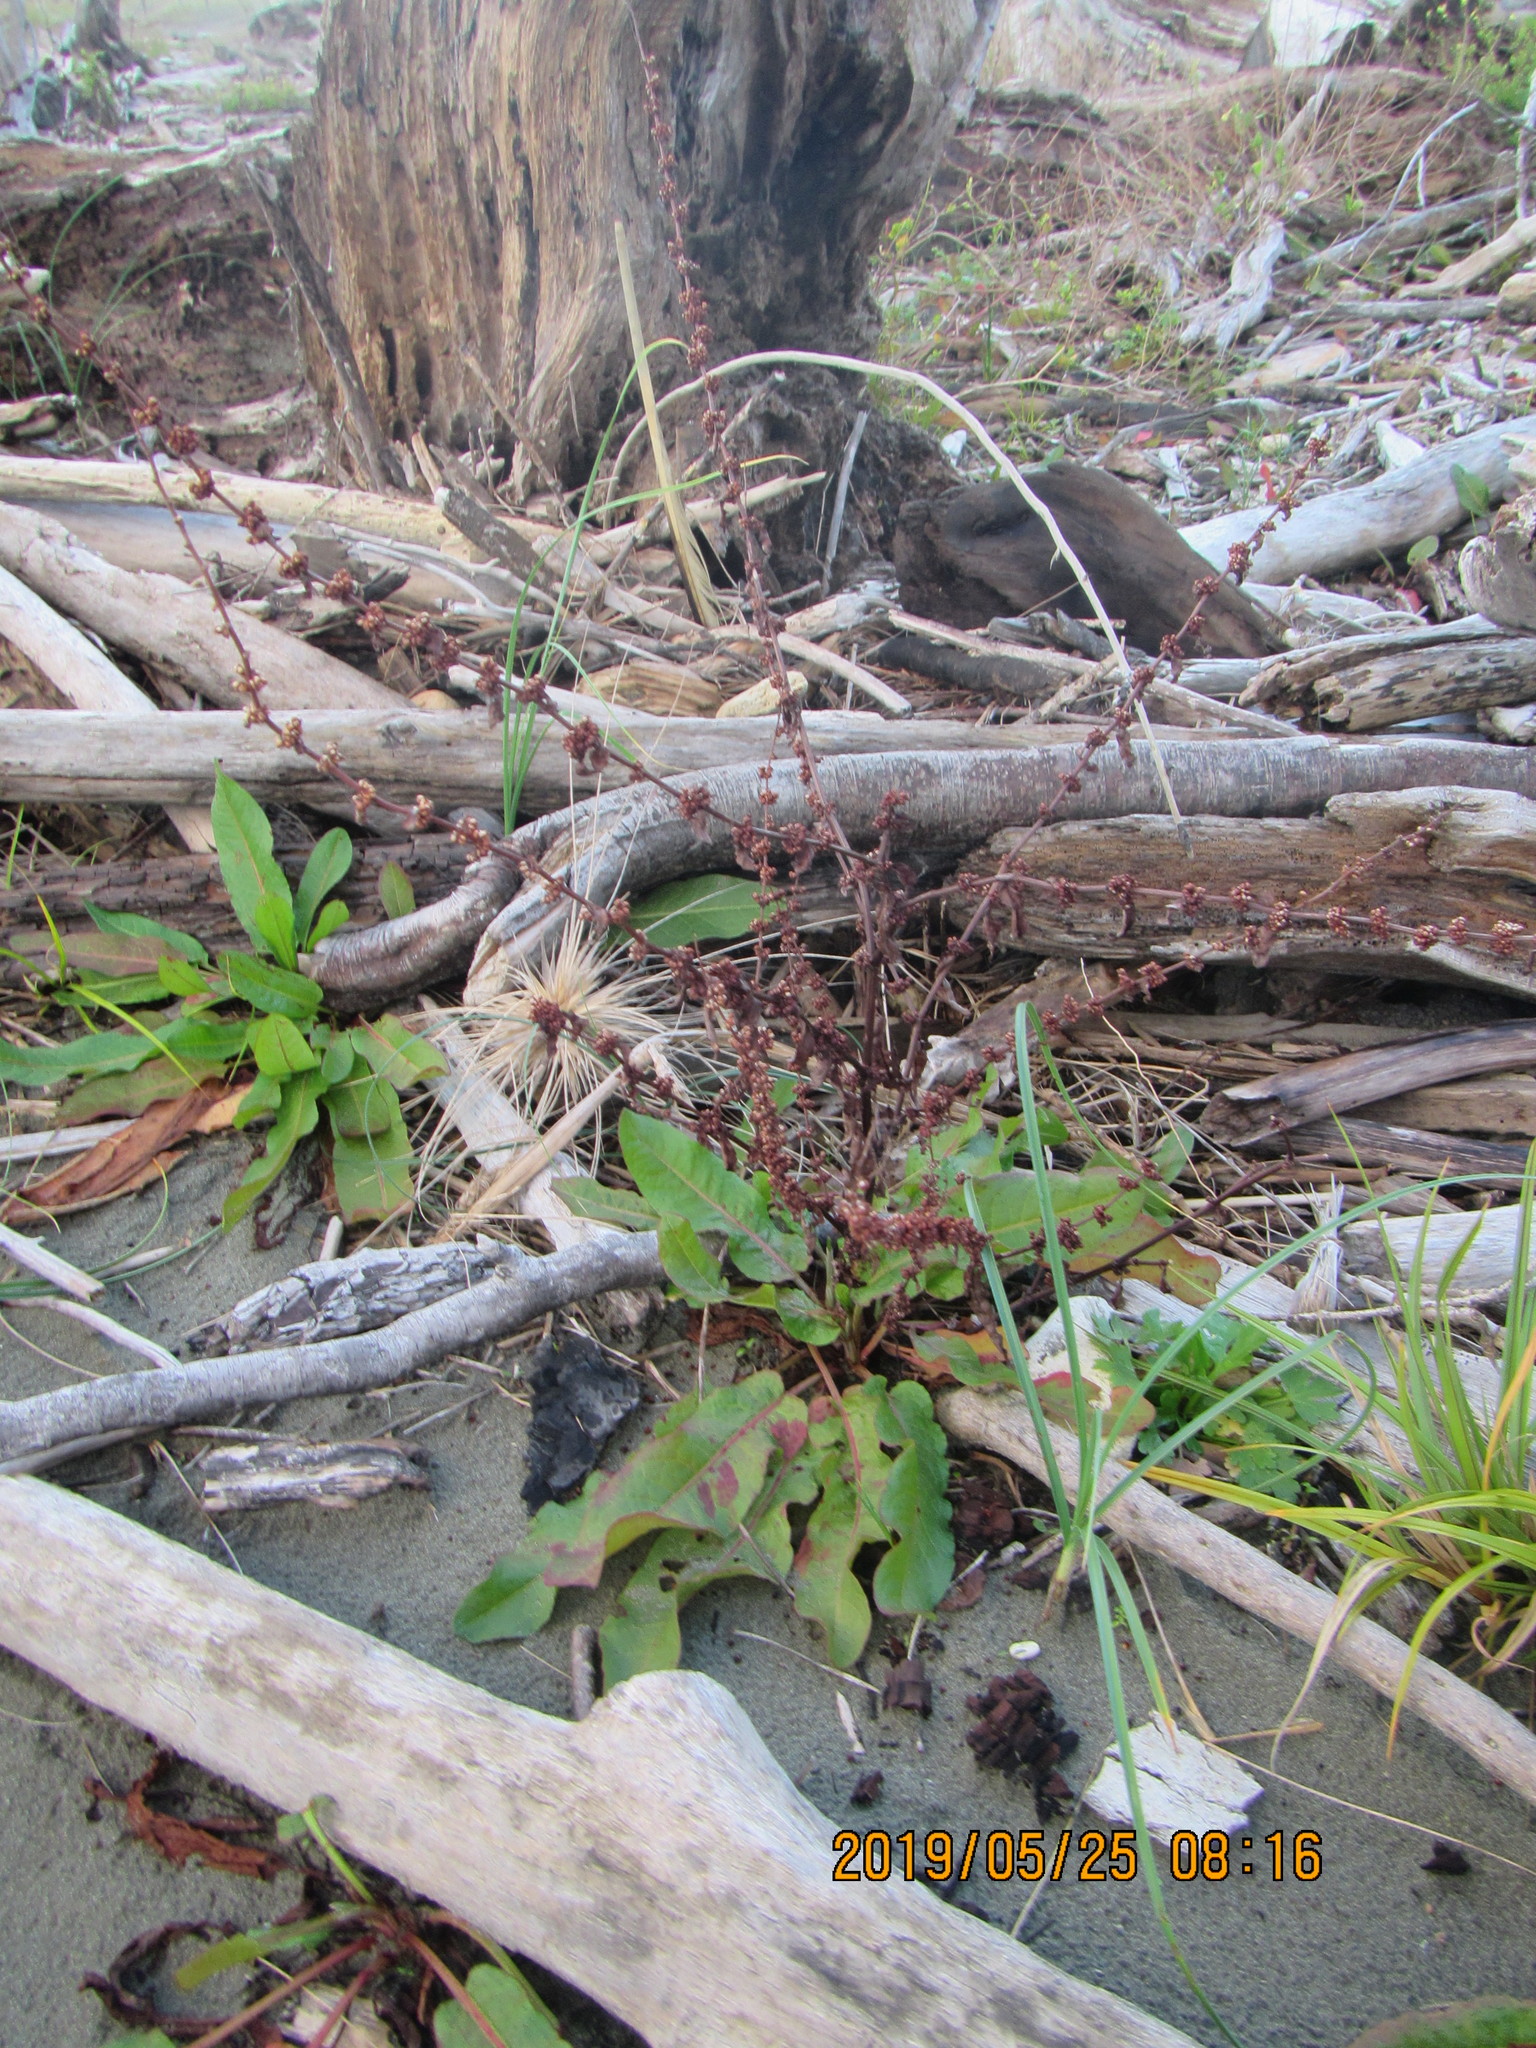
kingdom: Plantae
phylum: Tracheophyta
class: Magnoliopsida
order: Caryophyllales
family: Polygonaceae
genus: Rumex
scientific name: Rumex conglomeratus
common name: Clustered dock
